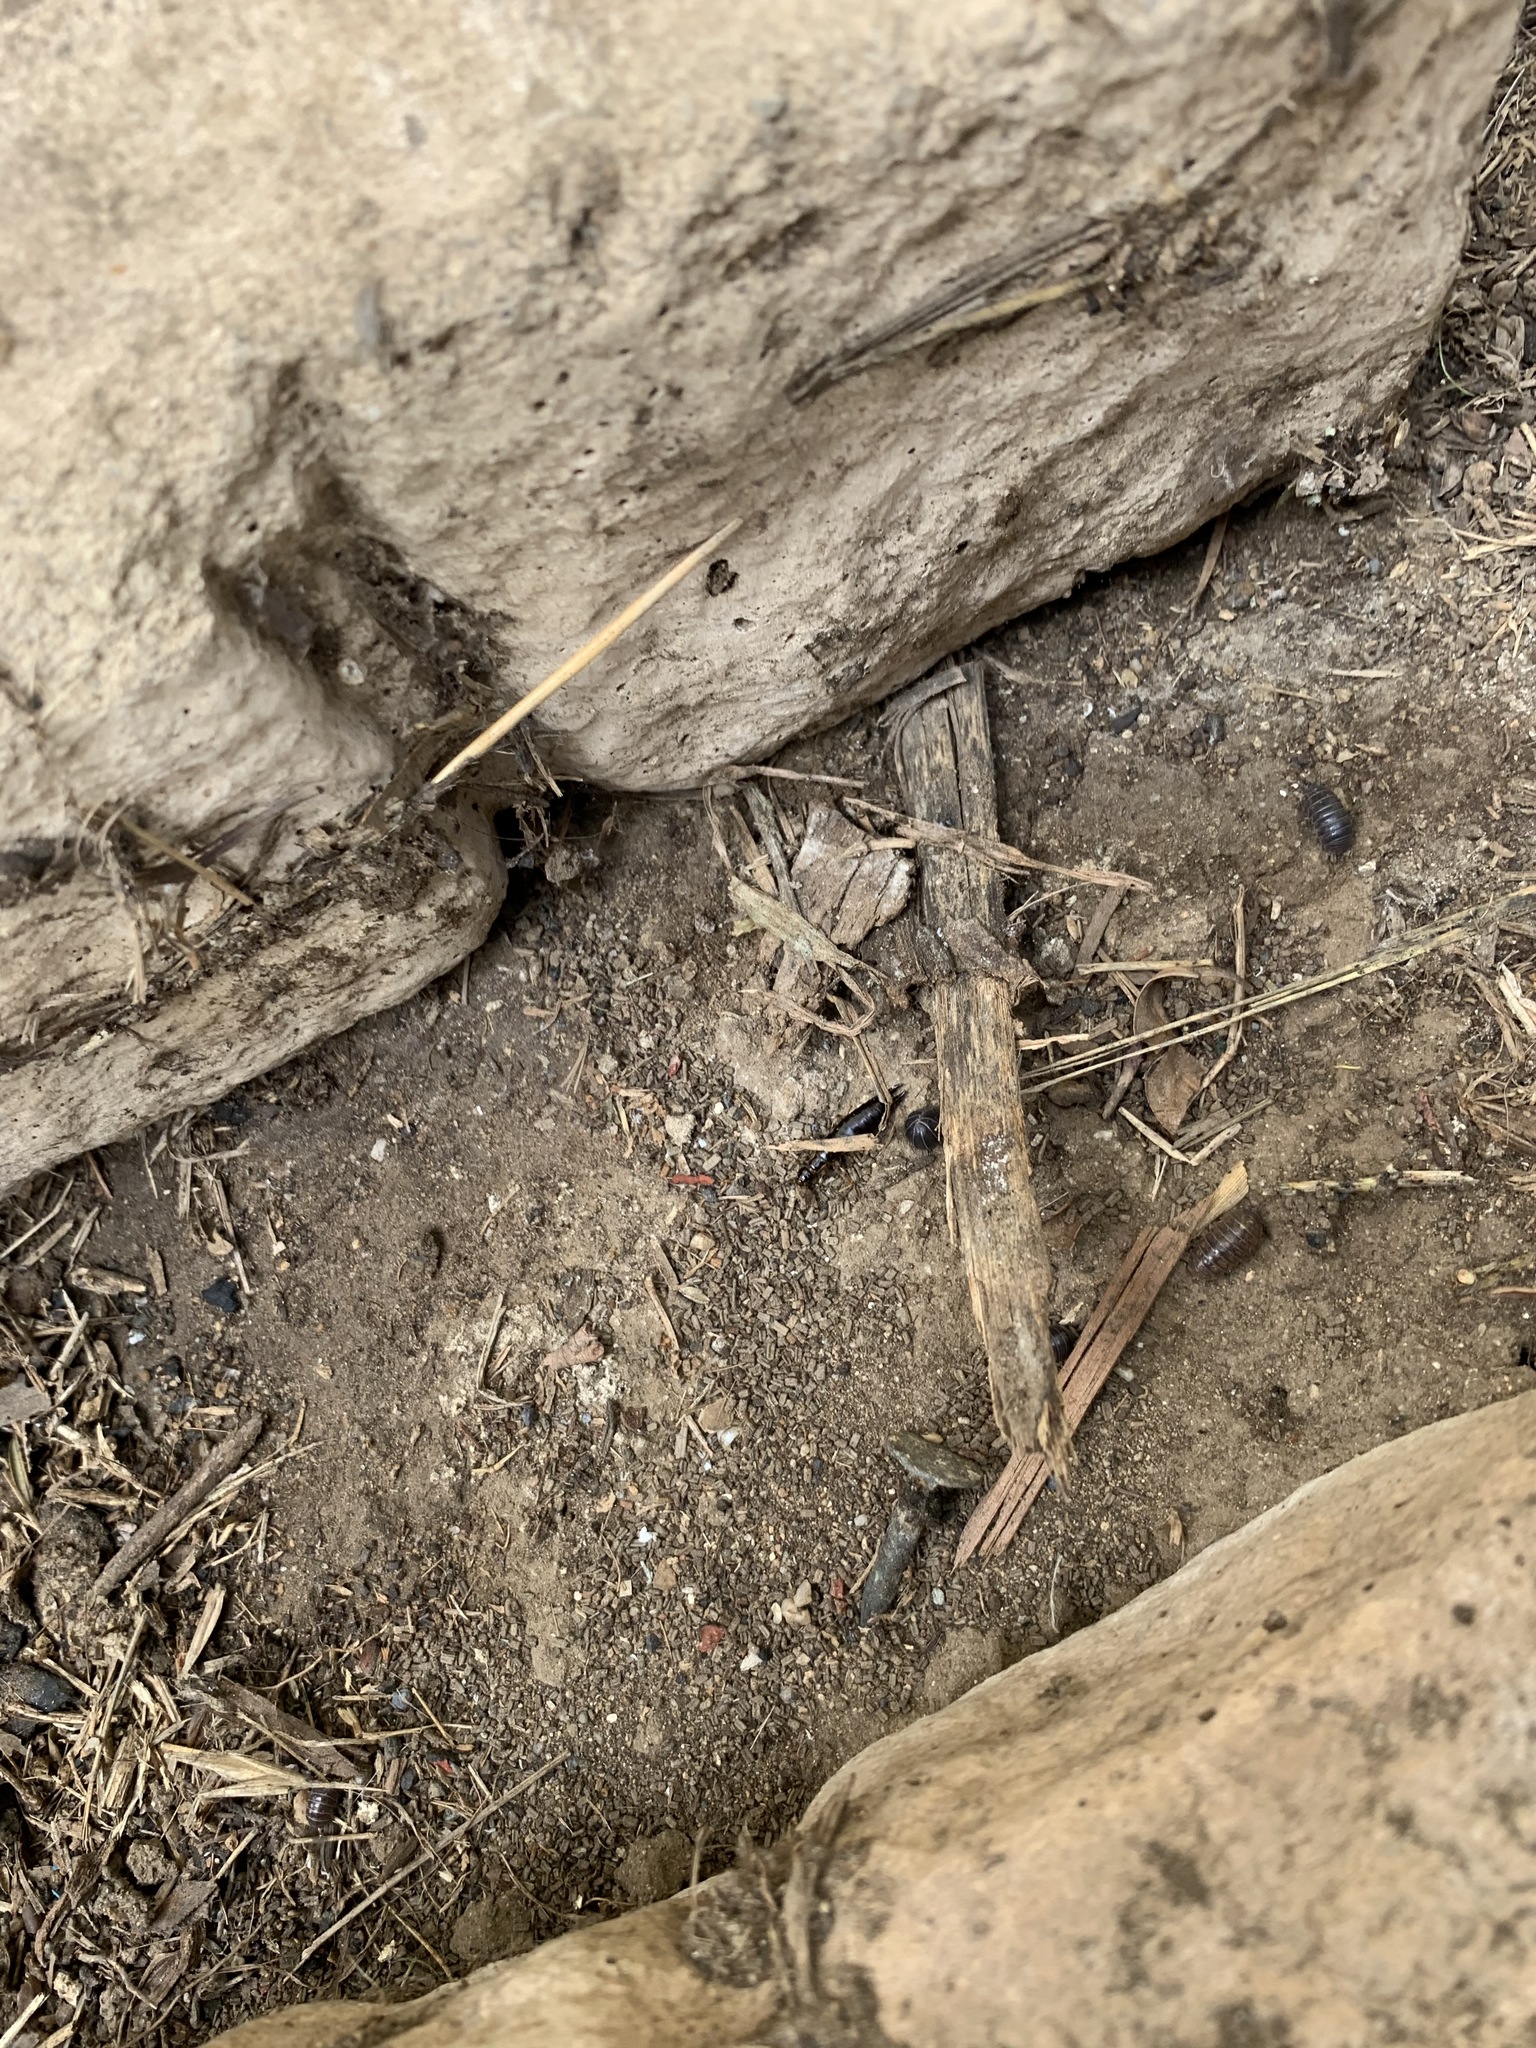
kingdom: Animalia
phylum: Arthropoda
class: Malacostraca
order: Isopoda
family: Armadillidiidae
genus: Armadillidium
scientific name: Armadillidium vulgare
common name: Common pill woodlouse
